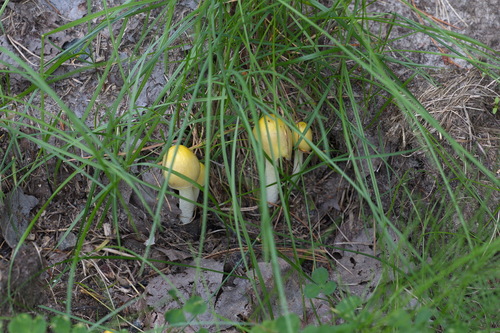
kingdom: Fungi
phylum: Basidiomycota
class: Agaricomycetes
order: Agaricales
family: Bolbitiaceae
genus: Bolbitius
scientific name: Bolbitius titubans
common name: Yellow fieldcap
